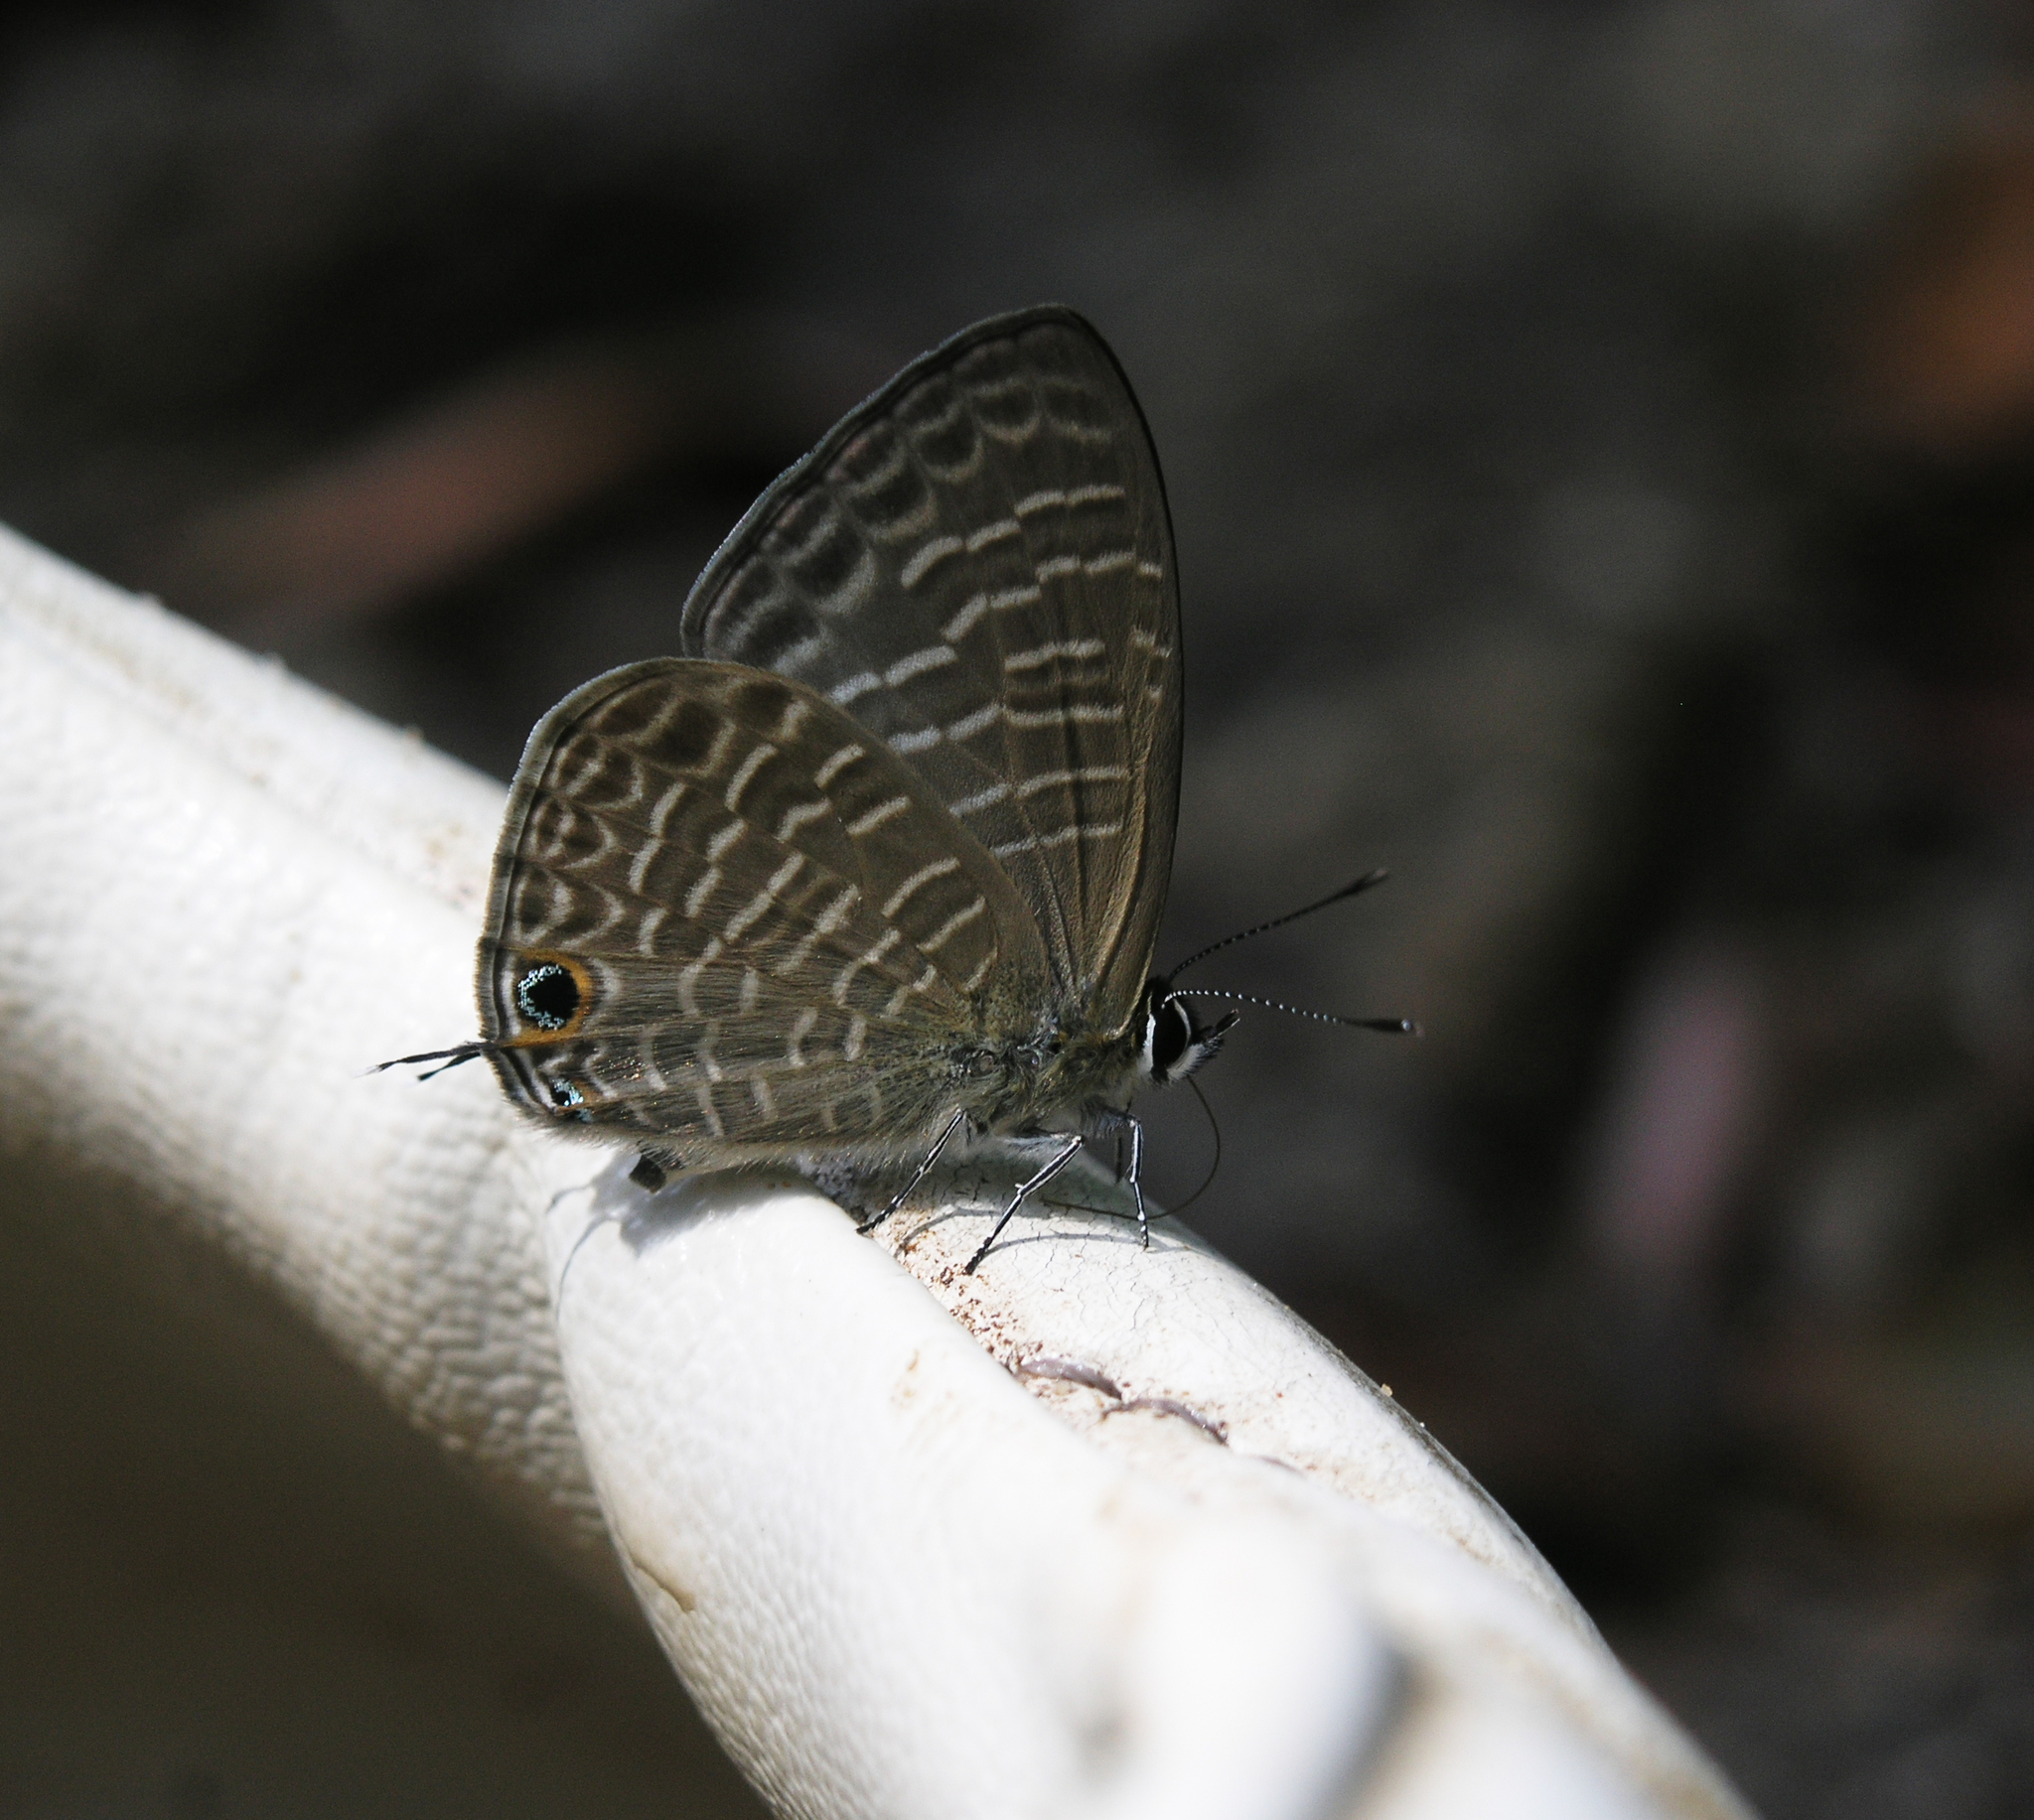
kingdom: Animalia
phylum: Arthropoda
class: Insecta
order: Lepidoptera
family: Lycaenidae
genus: Nacaduba
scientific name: Nacaduba beroe
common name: Opaque sixline blue
